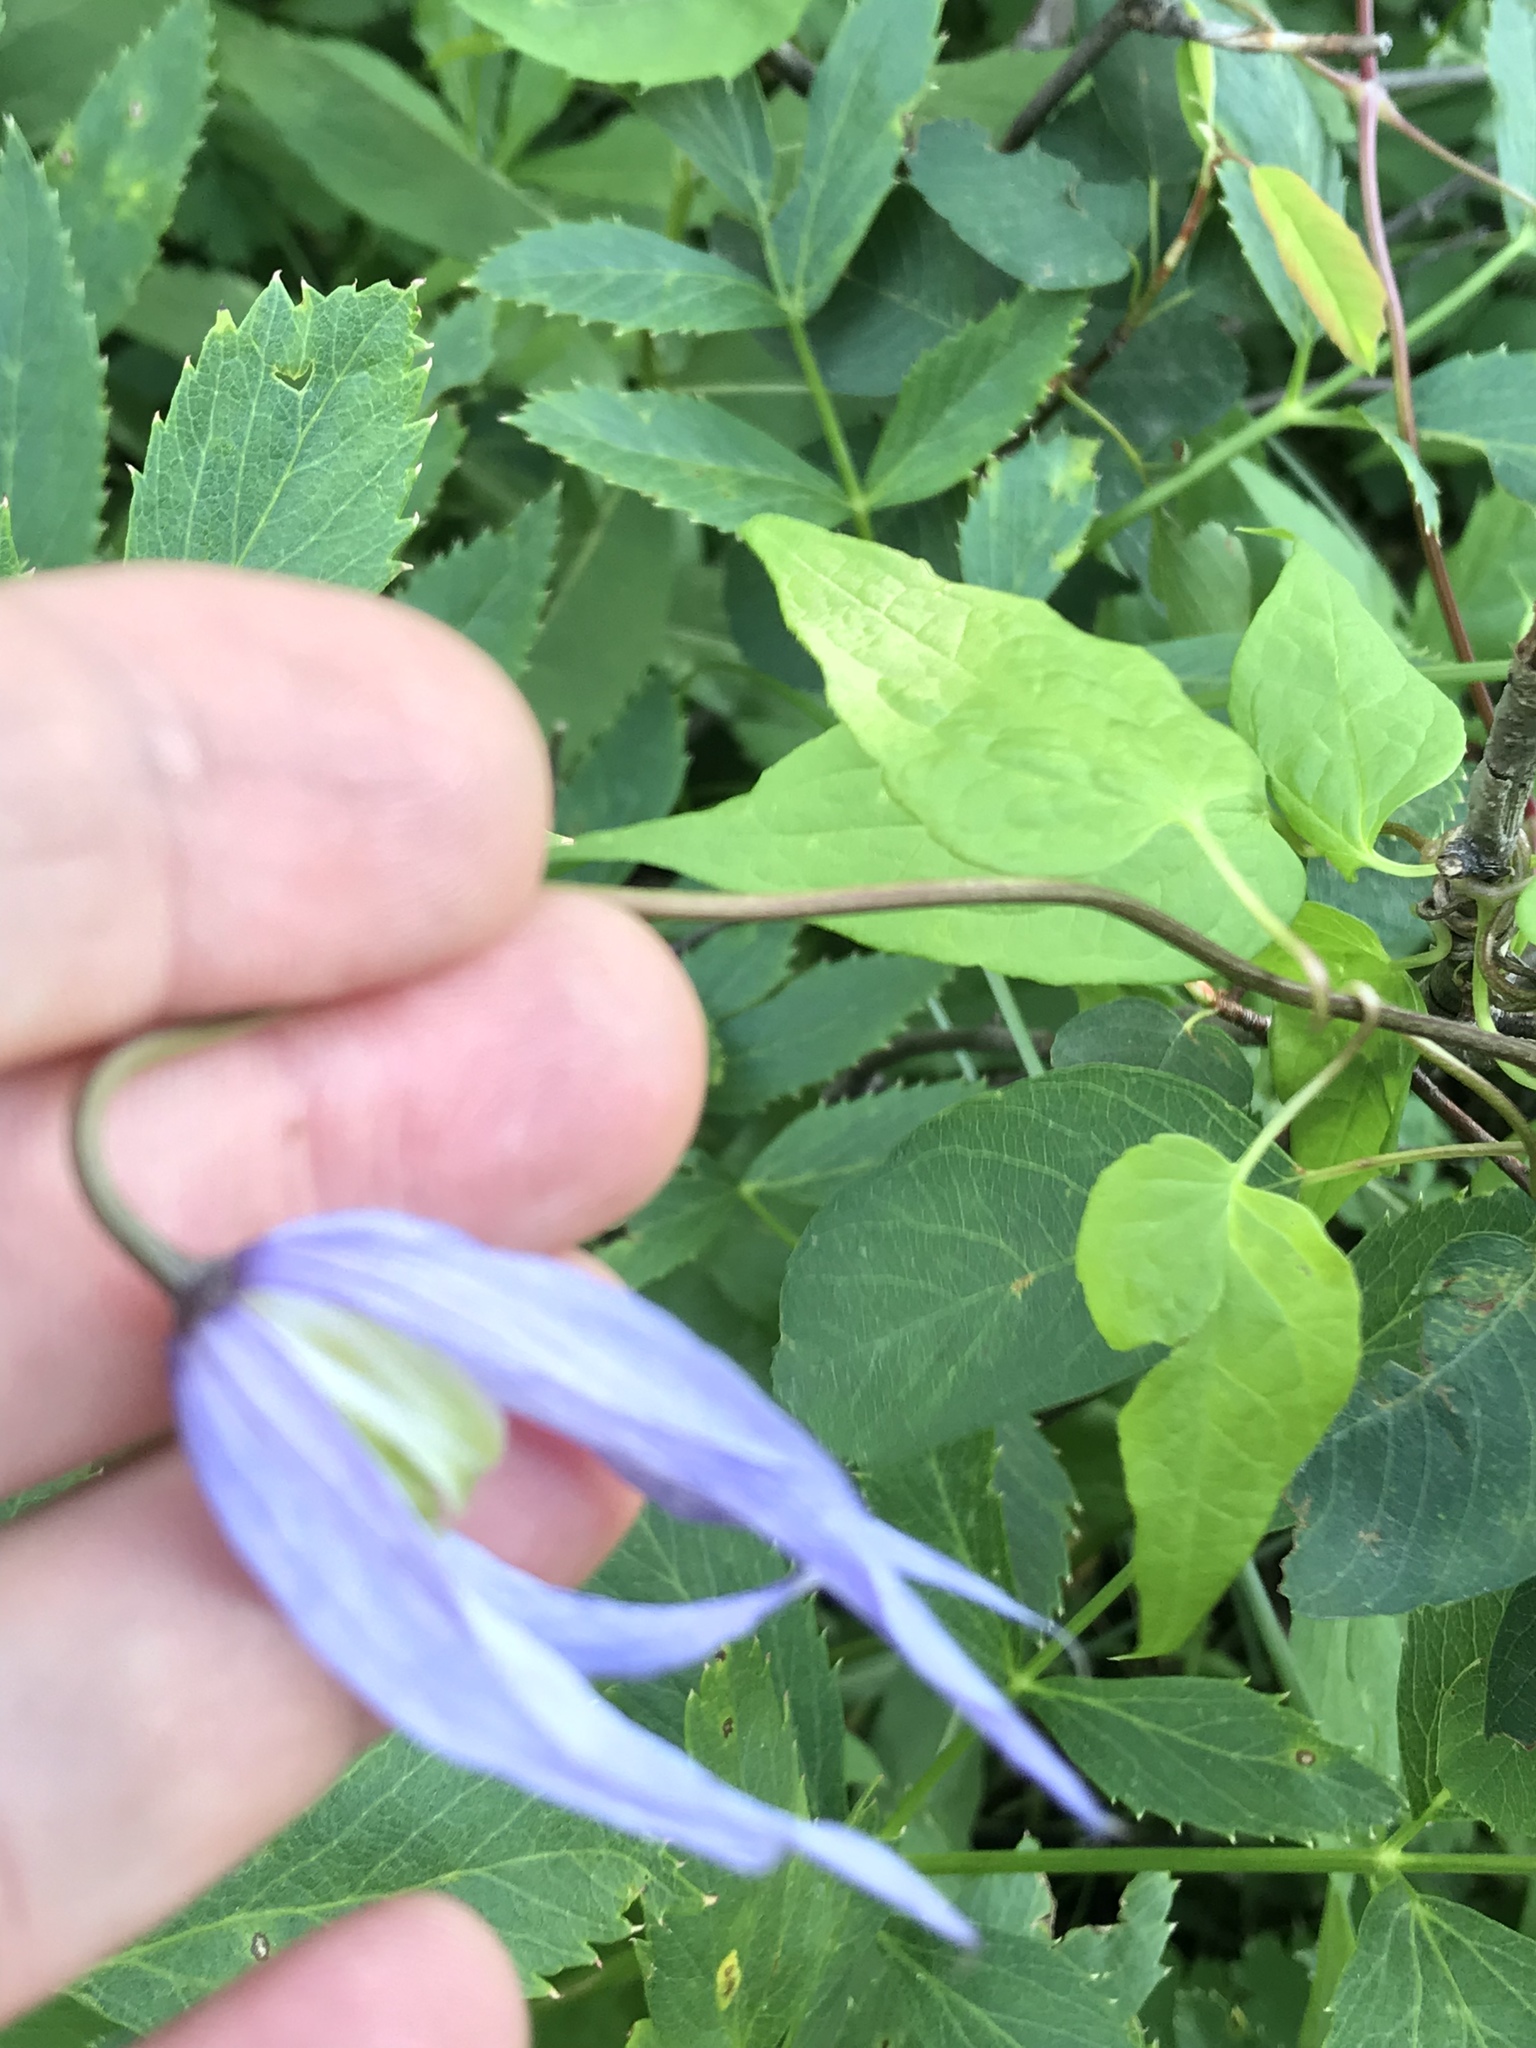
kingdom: Plantae
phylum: Tracheophyta
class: Magnoliopsida
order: Ranunculales
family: Ranunculaceae
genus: Clematis
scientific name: Clematis occidentalis
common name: Purple clematis
